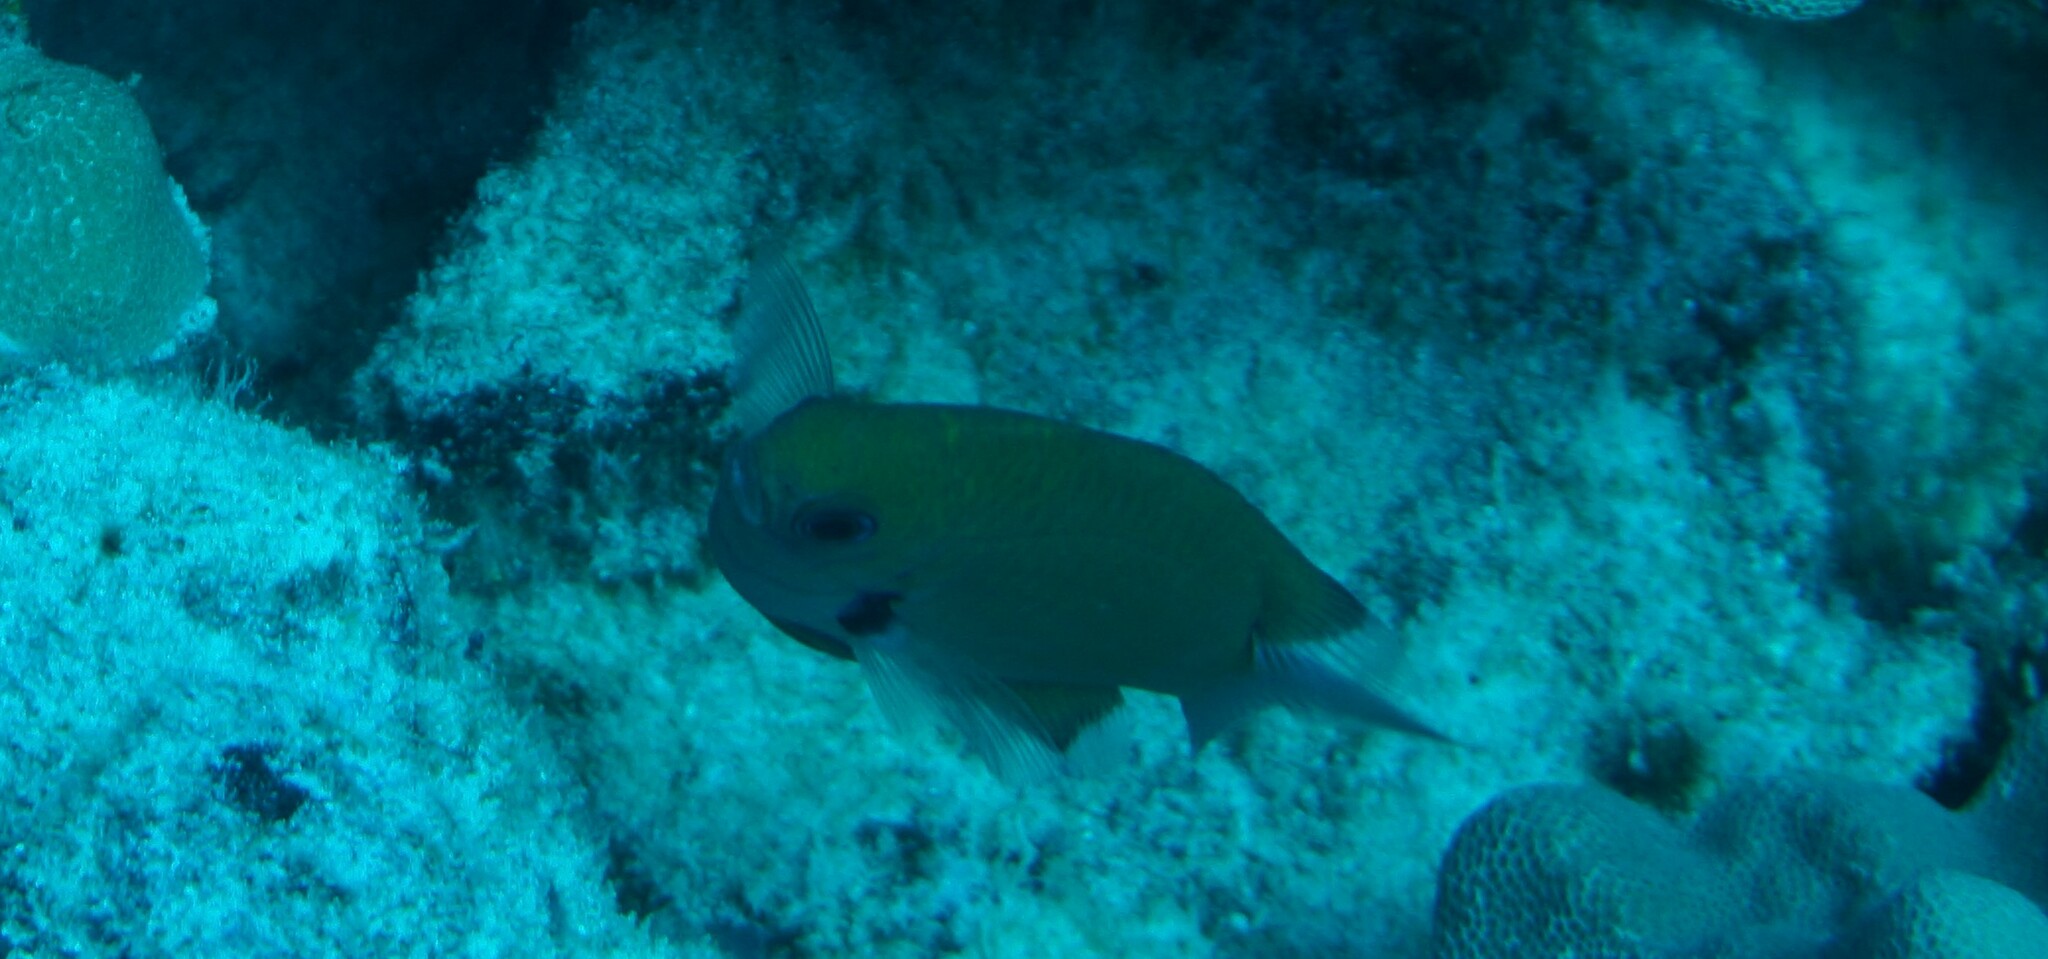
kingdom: Animalia
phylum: Chordata
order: Perciformes
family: Pomacentridae
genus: Pycnochromis
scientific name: Pycnochromis pacifica
